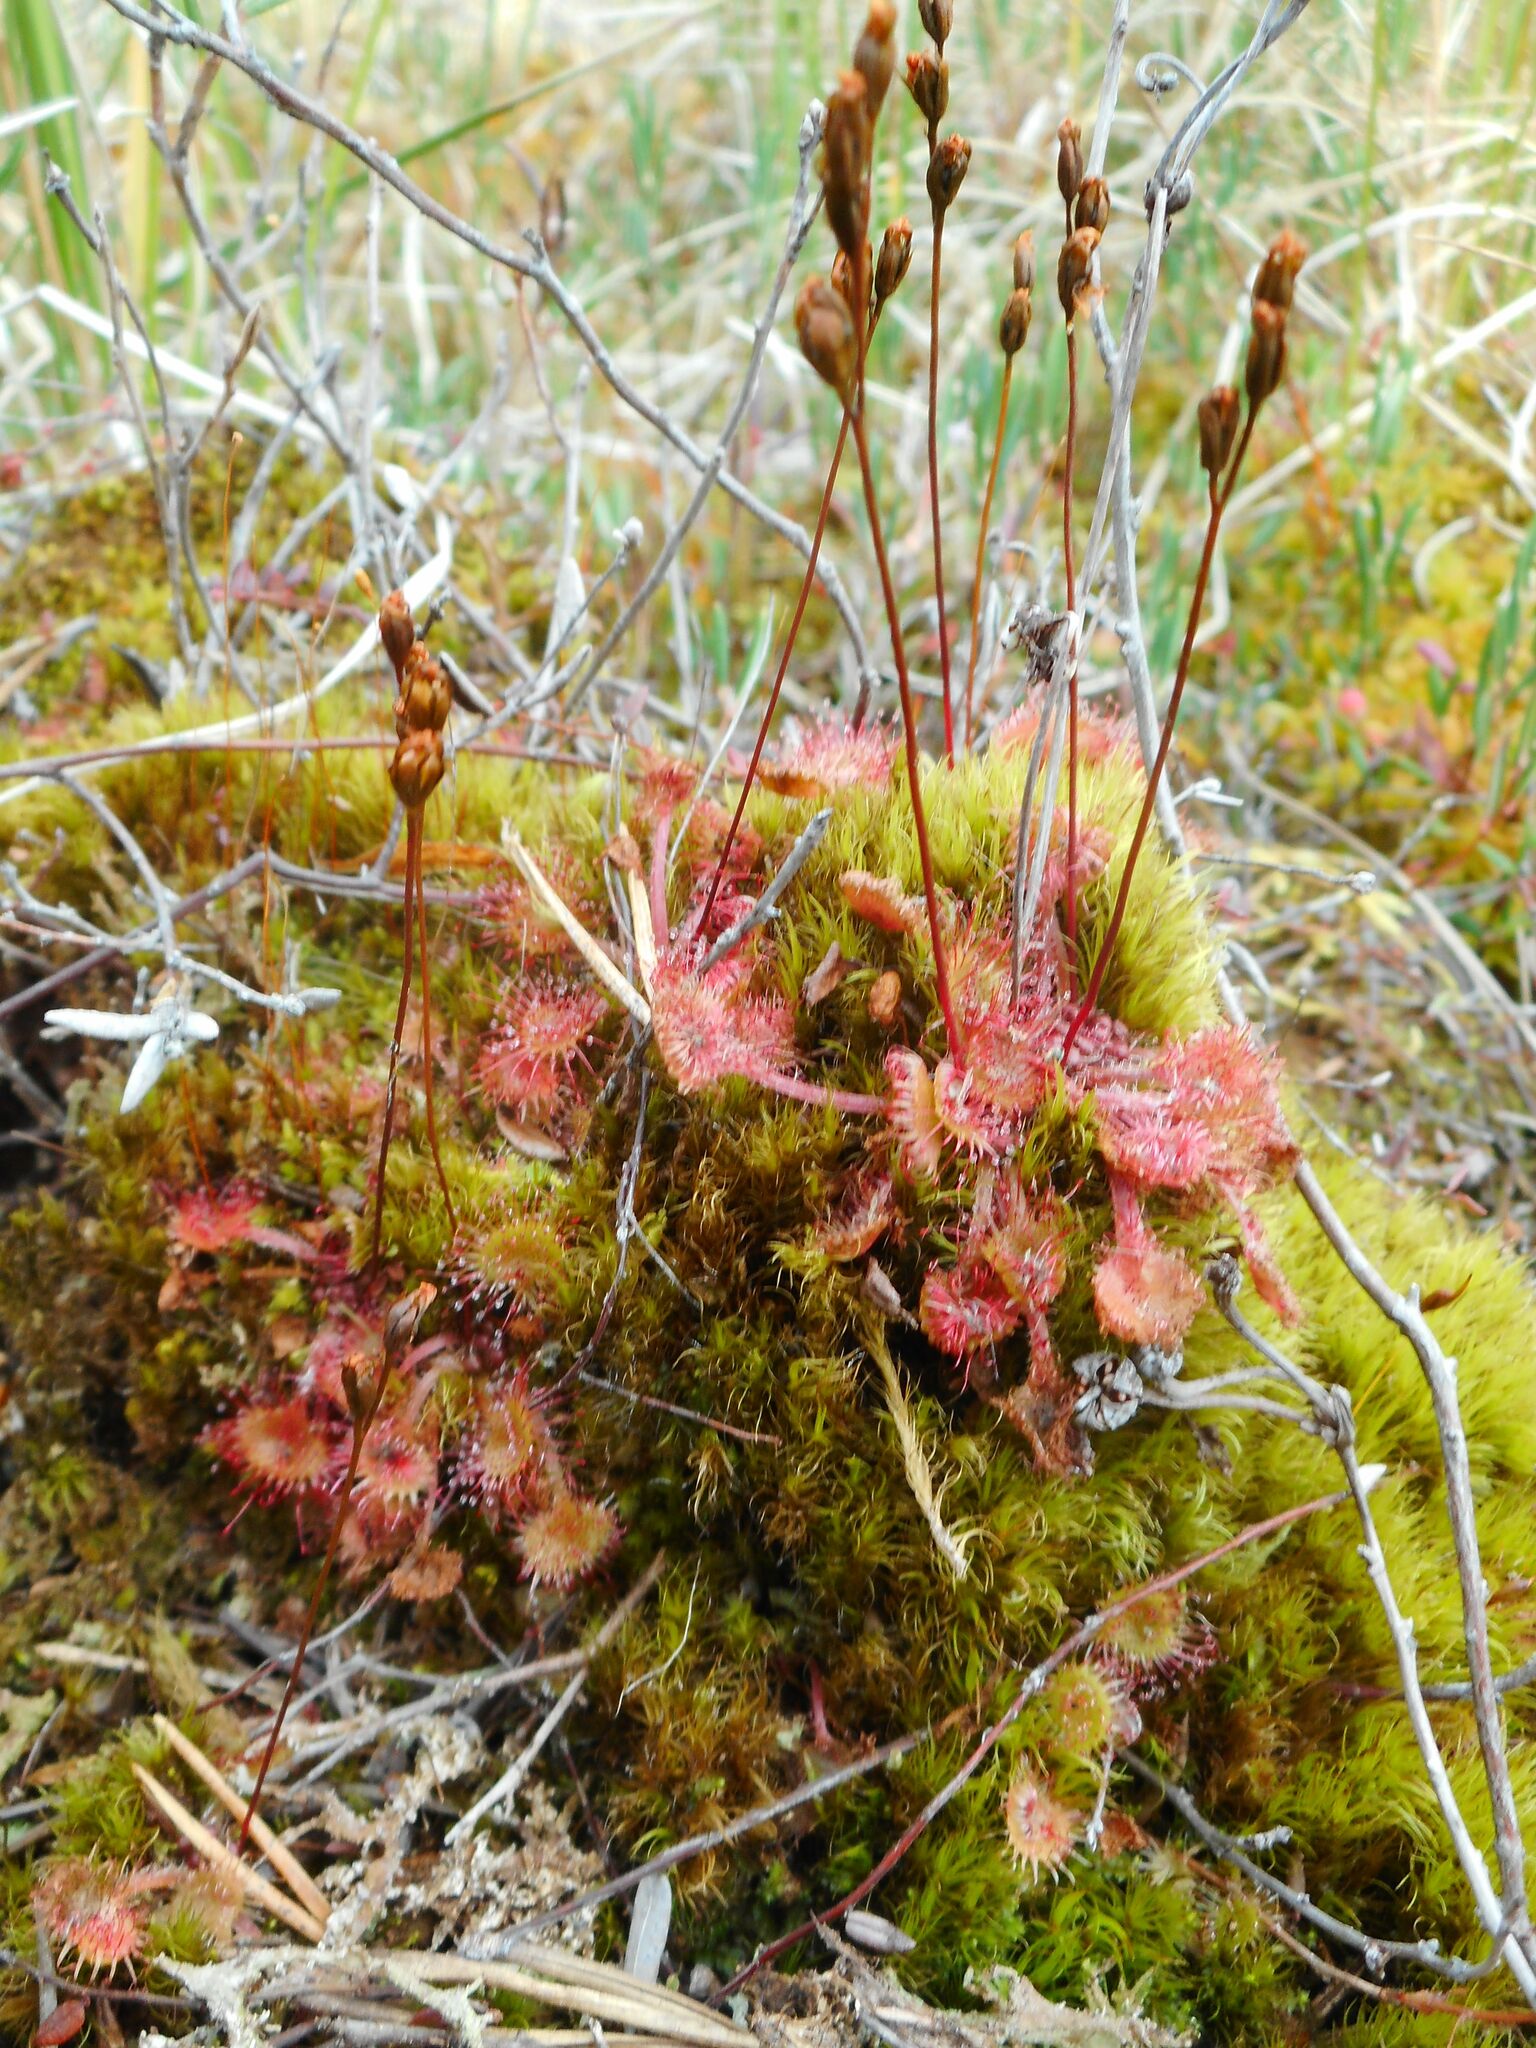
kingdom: Plantae
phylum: Tracheophyta
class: Magnoliopsida
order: Caryophyllales
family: Droseraceae
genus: Drosera
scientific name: Drosera rotundifolia
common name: Round-leaved sundew
